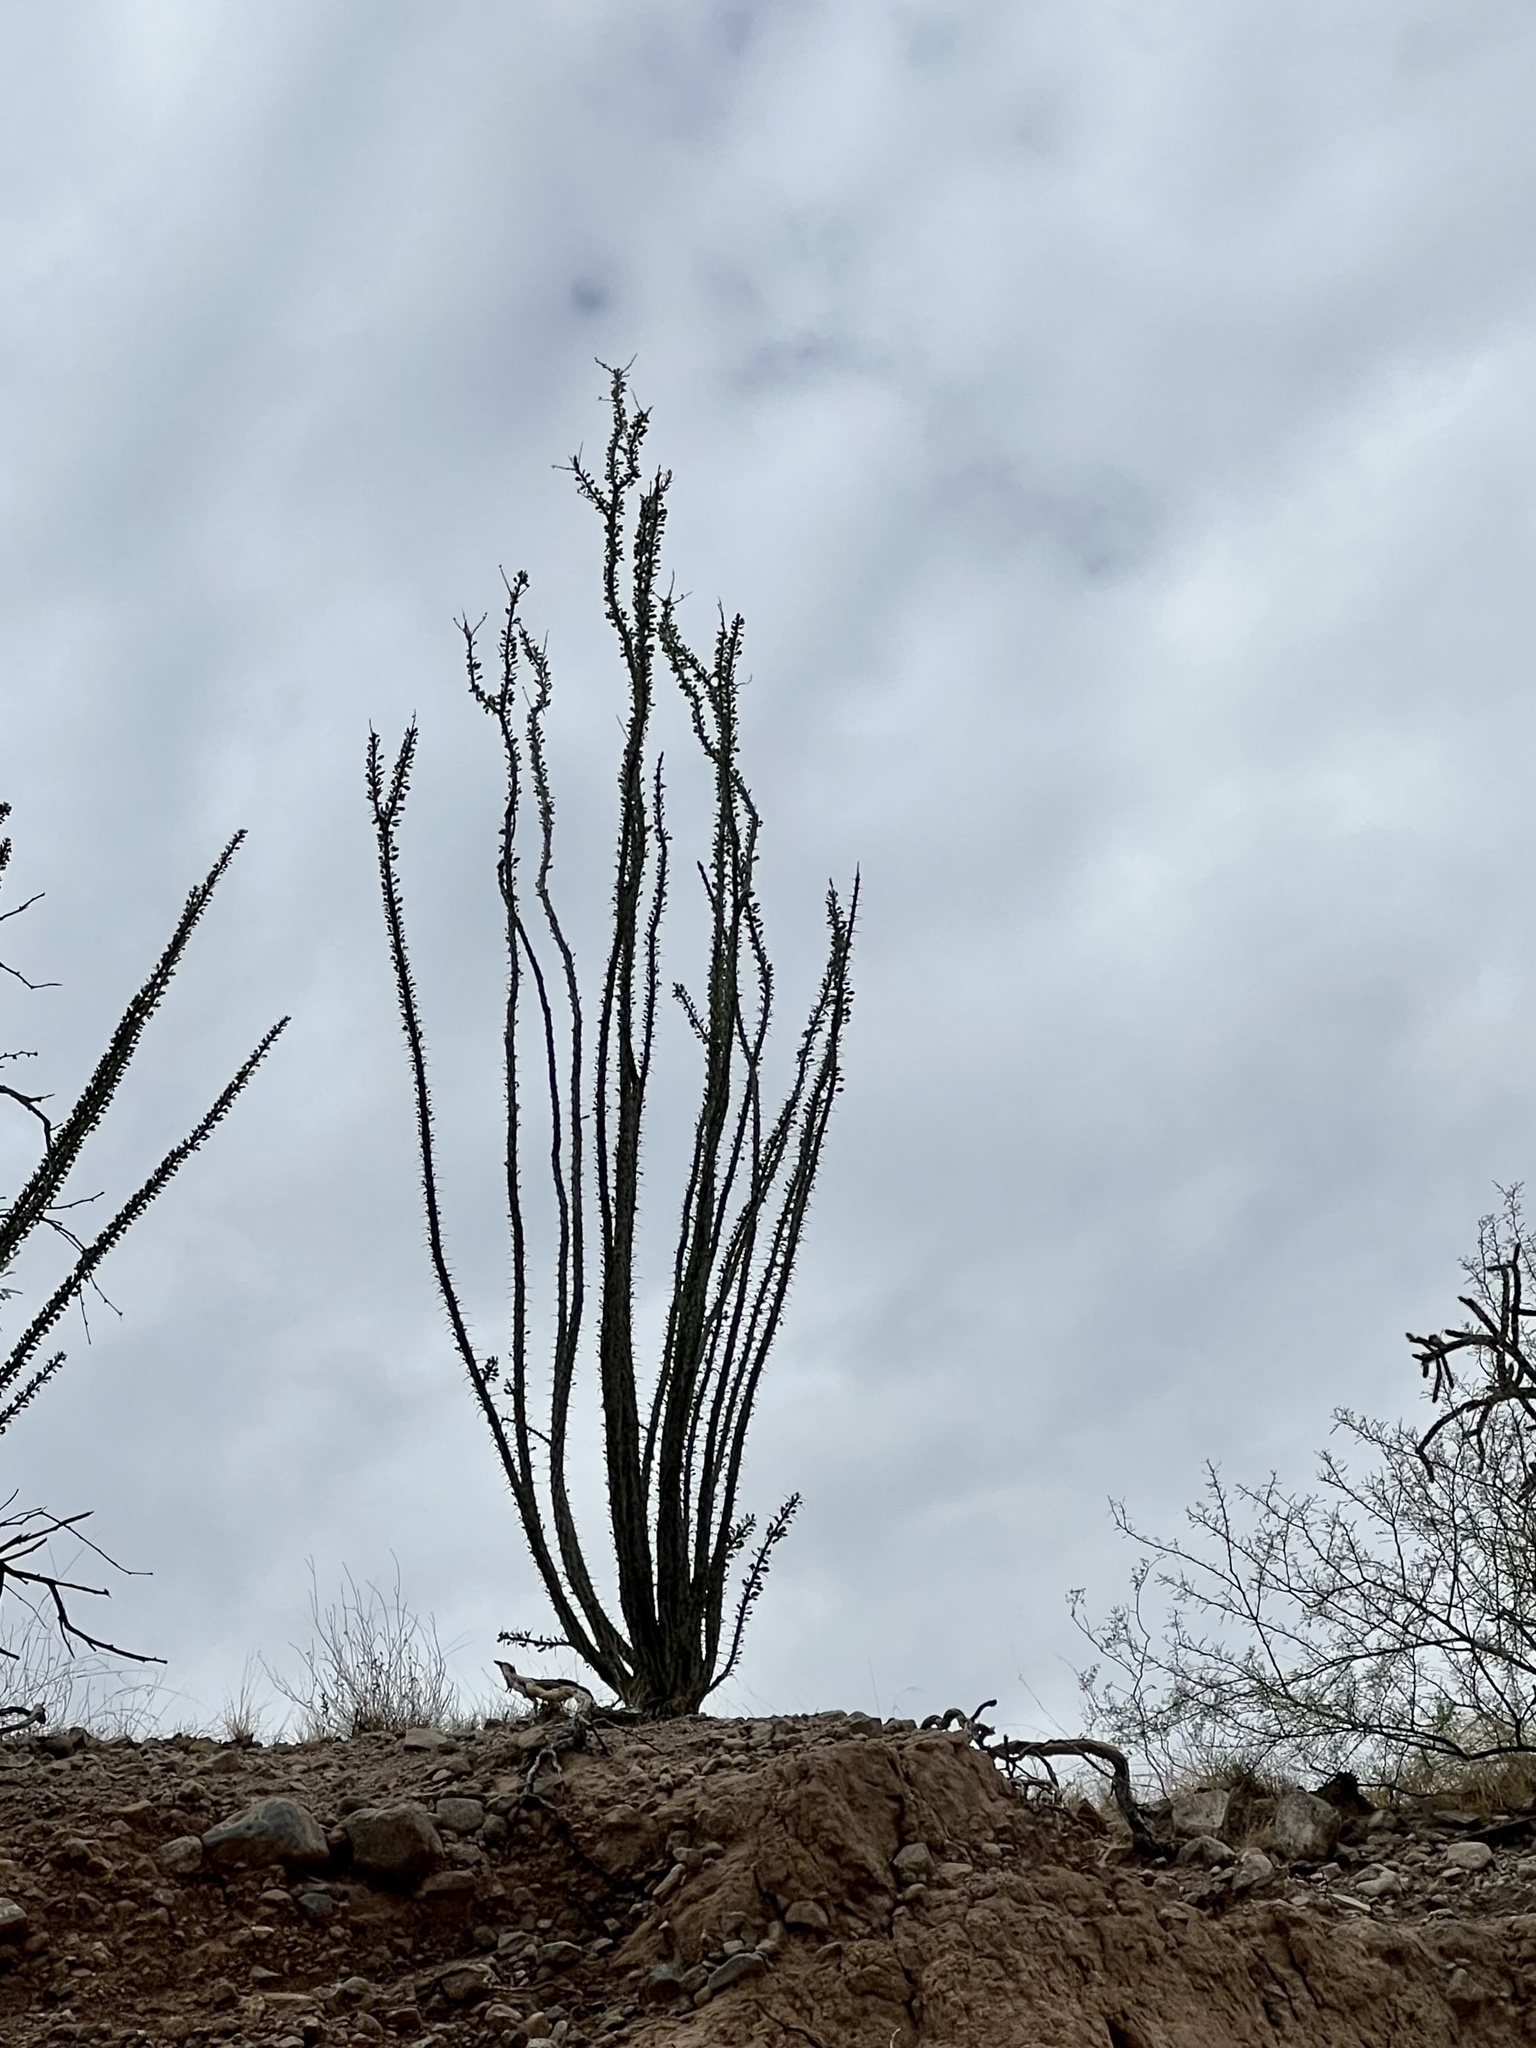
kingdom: Plantae
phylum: Tracheophyta
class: Magnoliopsida
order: Ericales
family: Fouquieriaceae
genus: Fouquieria
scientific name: Fouquieria splendens
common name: Vine-cactus
